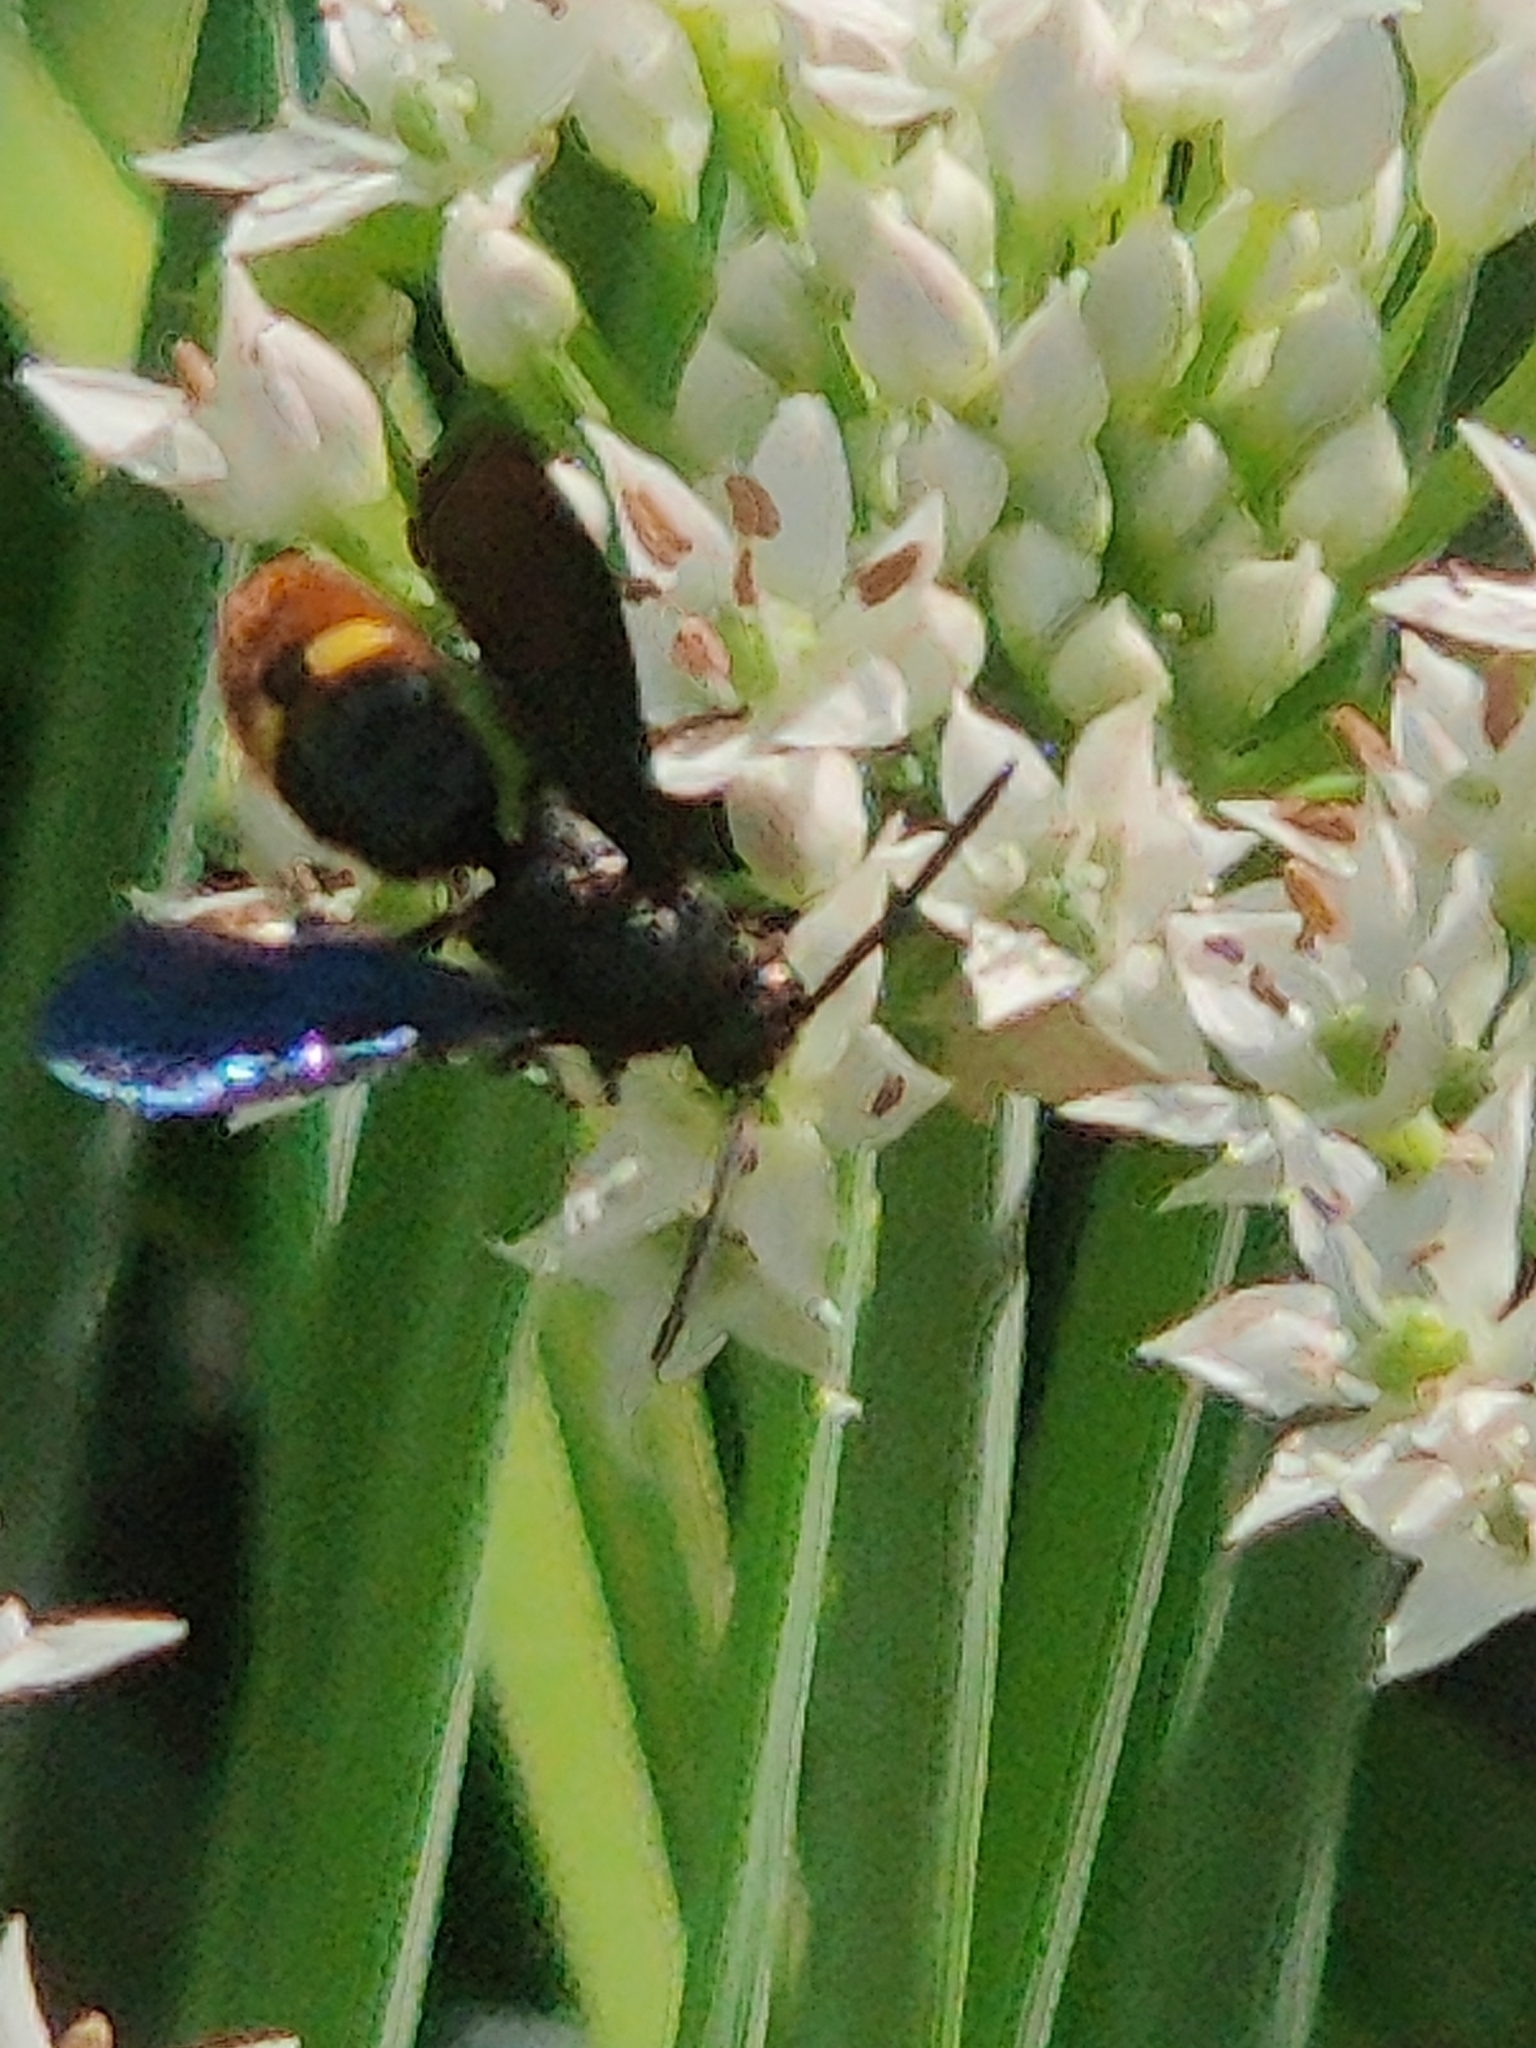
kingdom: Animalia
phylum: Arthropoda
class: Insecta
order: Hymenoptera
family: Scoliidae
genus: Scolia
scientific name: Scolia dubia
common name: Blue-winged scoliid wasp
